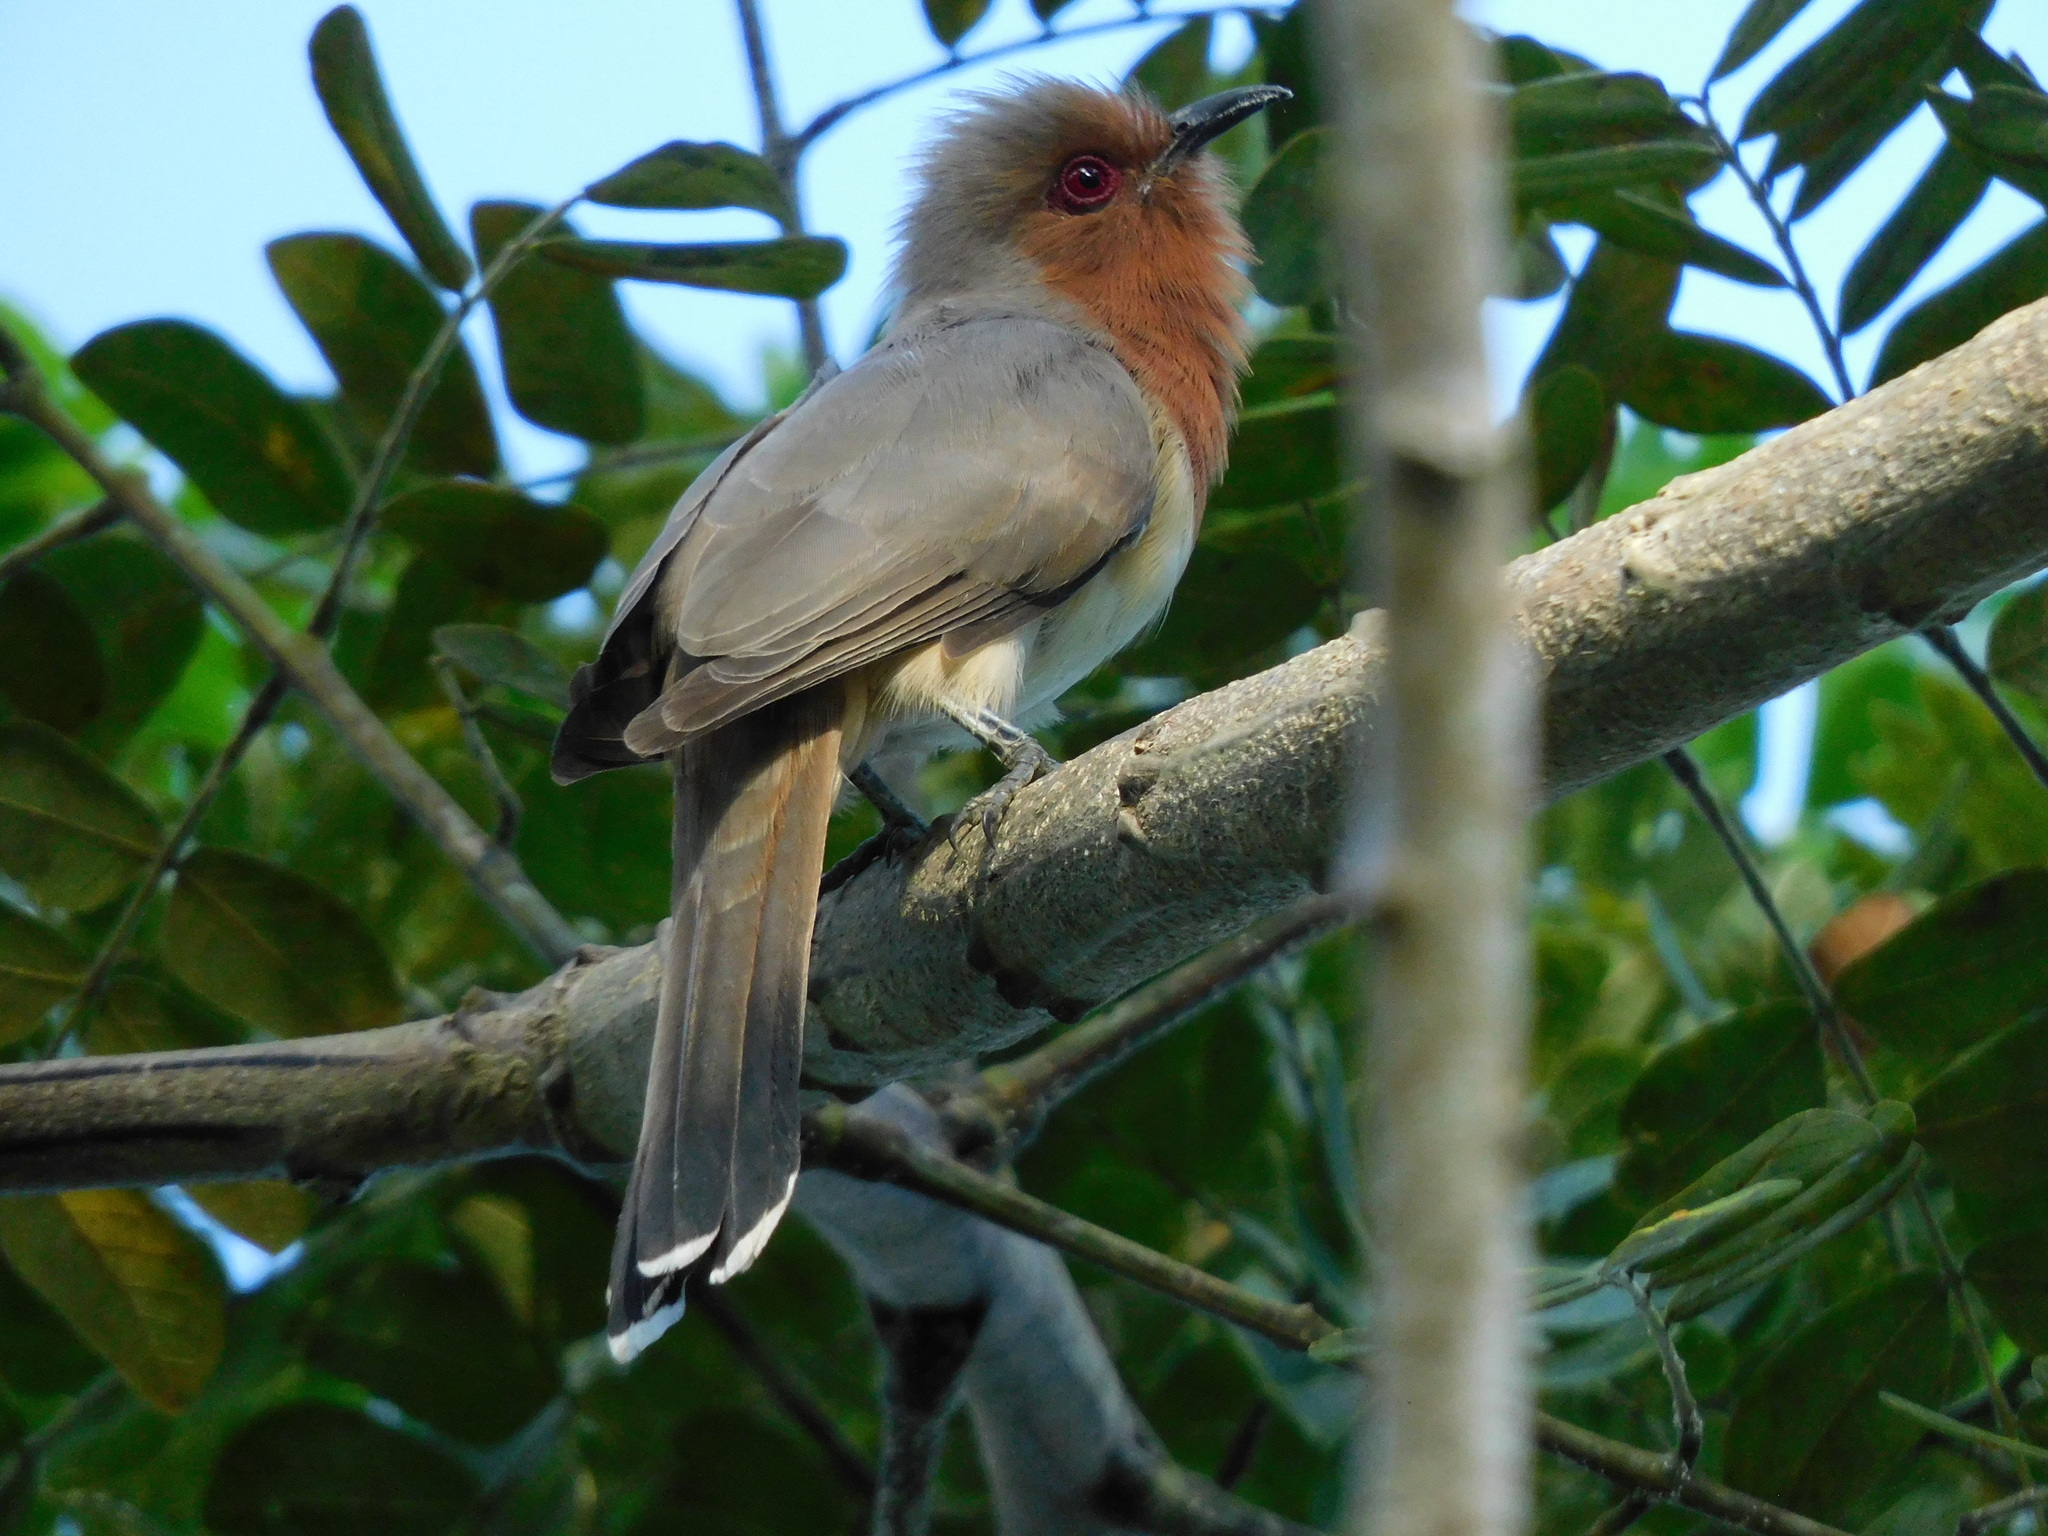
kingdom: Animalia
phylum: Chordata
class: Aves
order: Cuculiformes
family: Cuculidae
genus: Coccyzus
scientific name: Coccyzus pumilus
